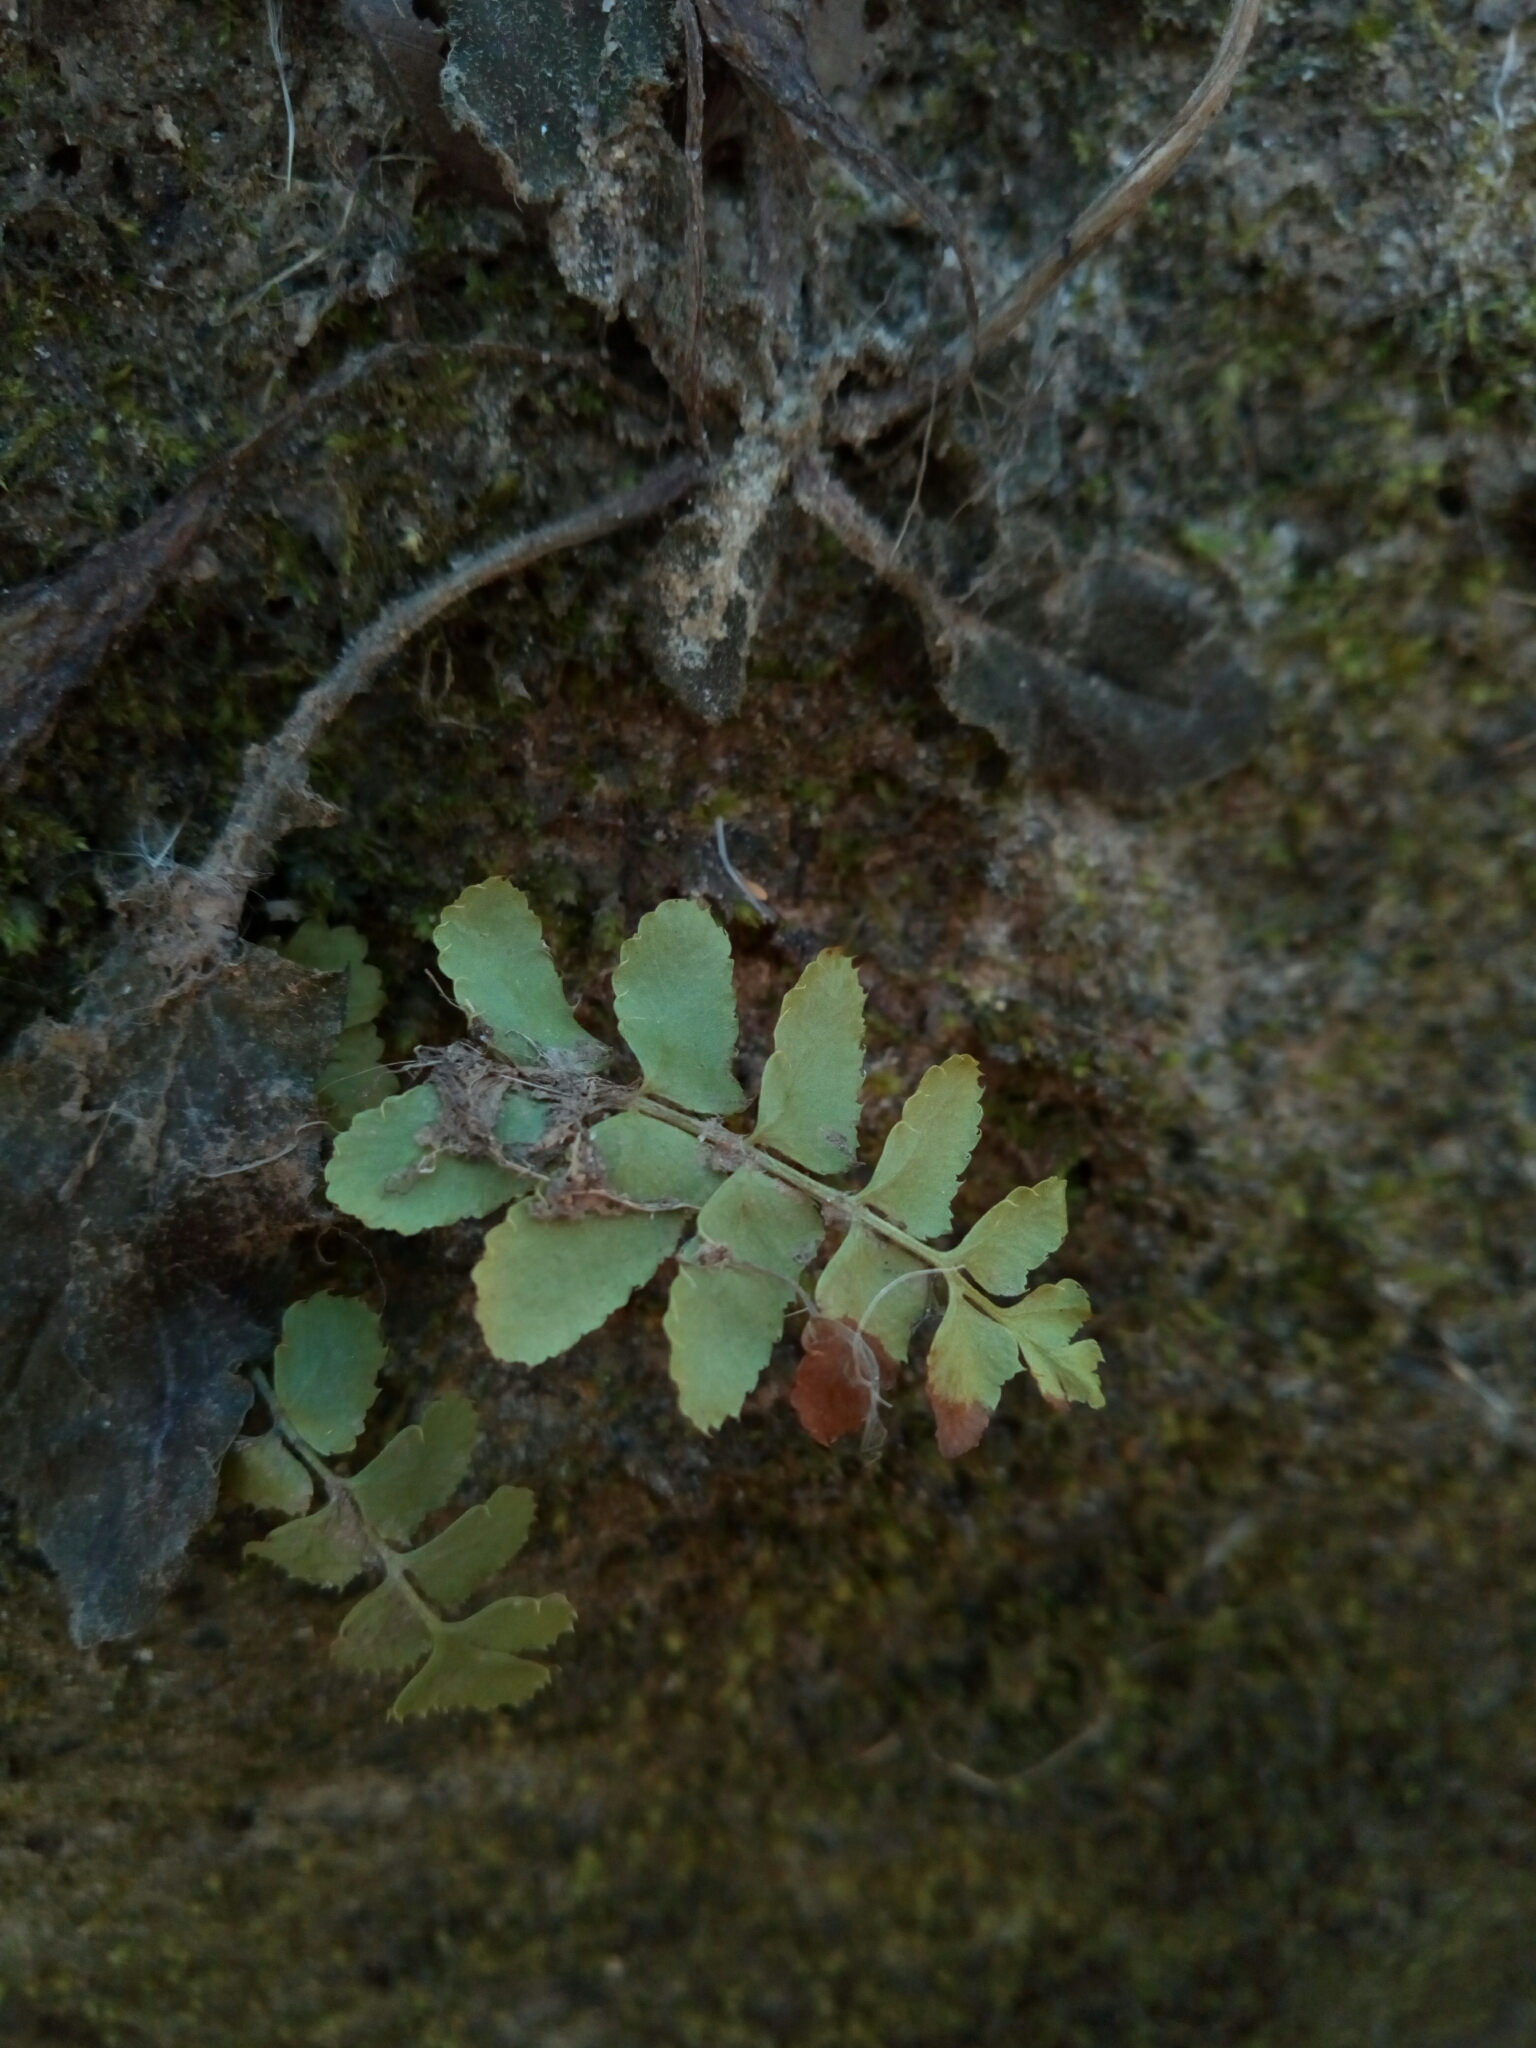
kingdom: Plantae
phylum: Tracheophyta
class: Polypodiopsida
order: Polypodiales
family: Dryopteridaceae
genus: Polystichum
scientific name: Polystichum acrostichoides
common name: Christmas fern
